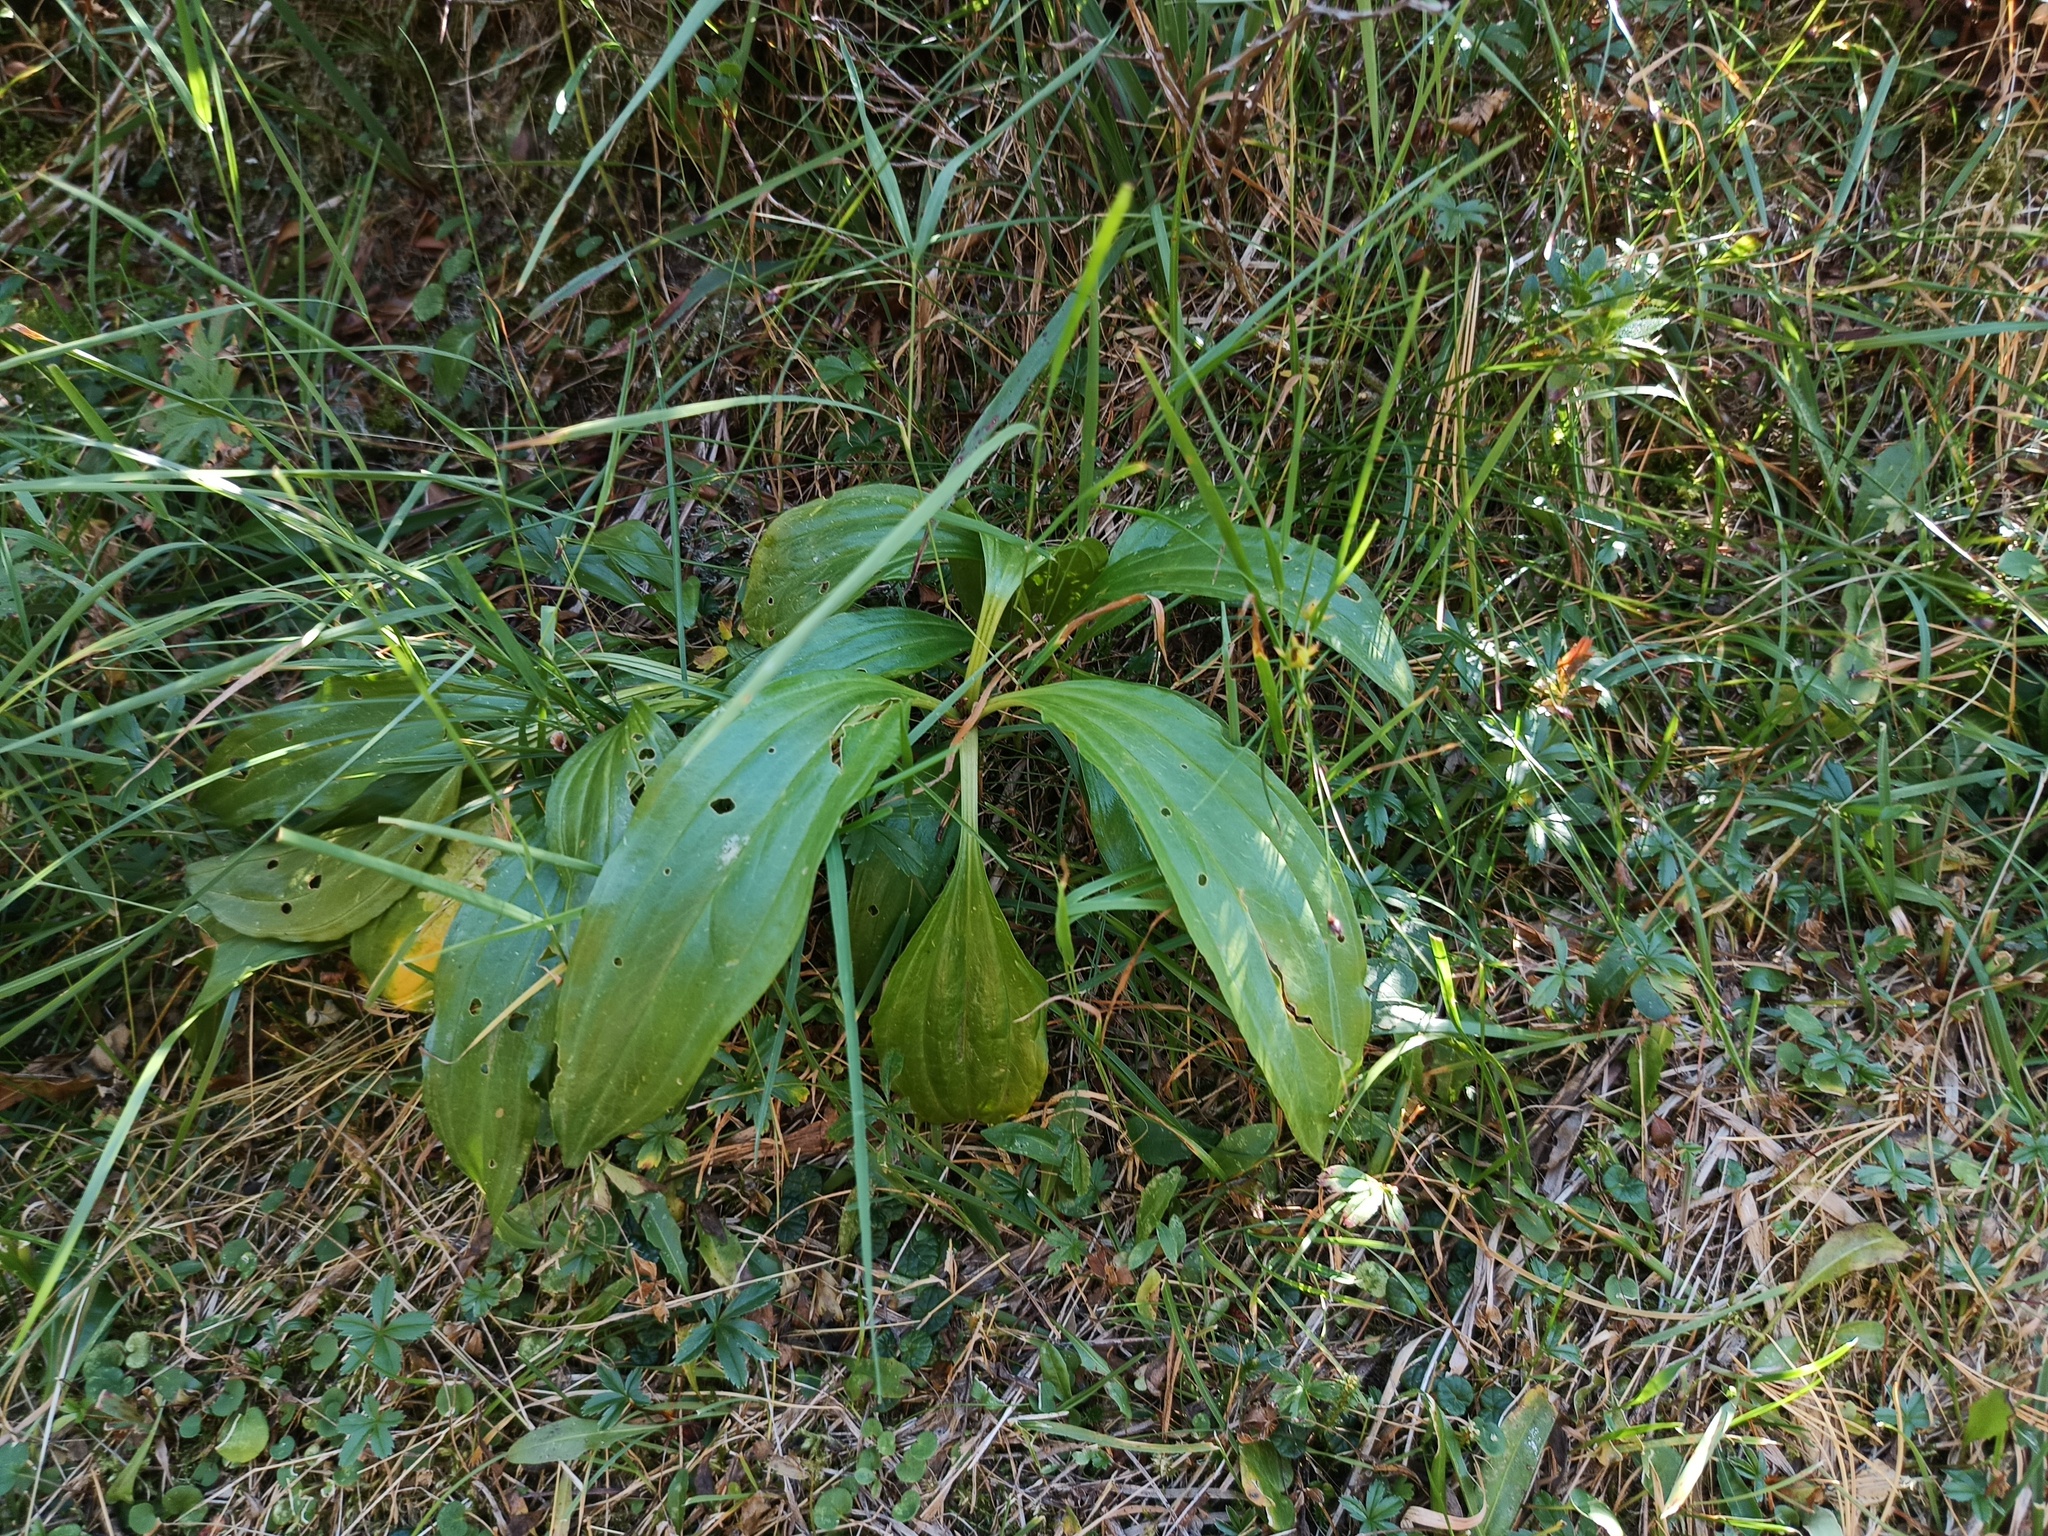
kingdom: Plantae
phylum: Tracheophyta
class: Liliopsida
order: Asparagales
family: Amaryllidaceae
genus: Allium
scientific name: Allium victorialis
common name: Alpine leek
